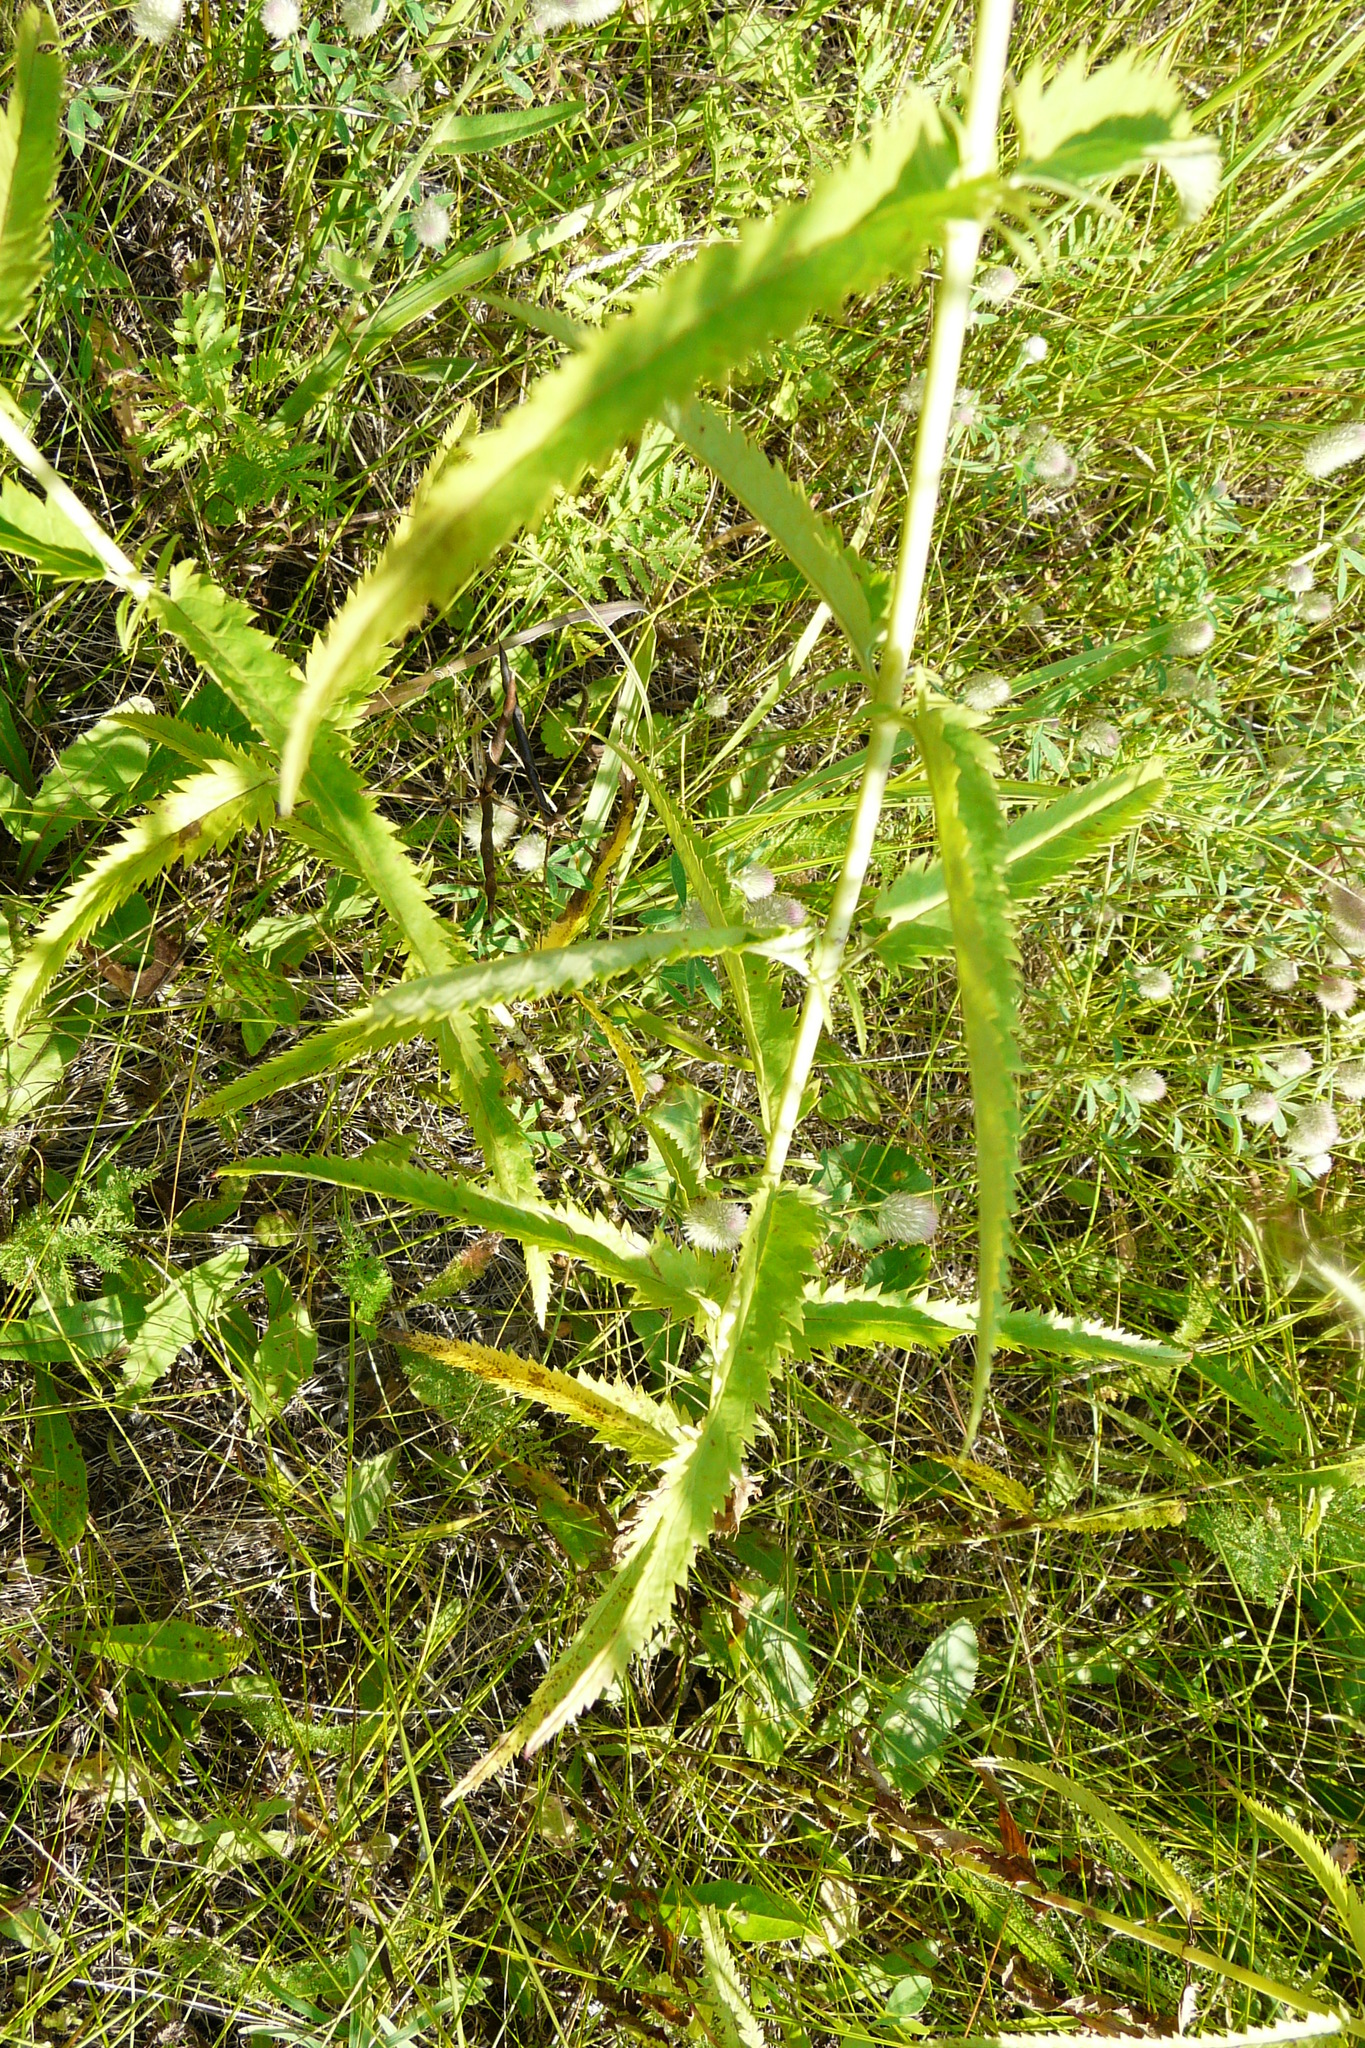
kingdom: Plantae
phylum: Tracheophyta
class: Magnoliopsida
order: Lamiales
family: Plantaginaceae
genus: Veronica
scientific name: Veronica longifolia
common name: Garden speedwell
